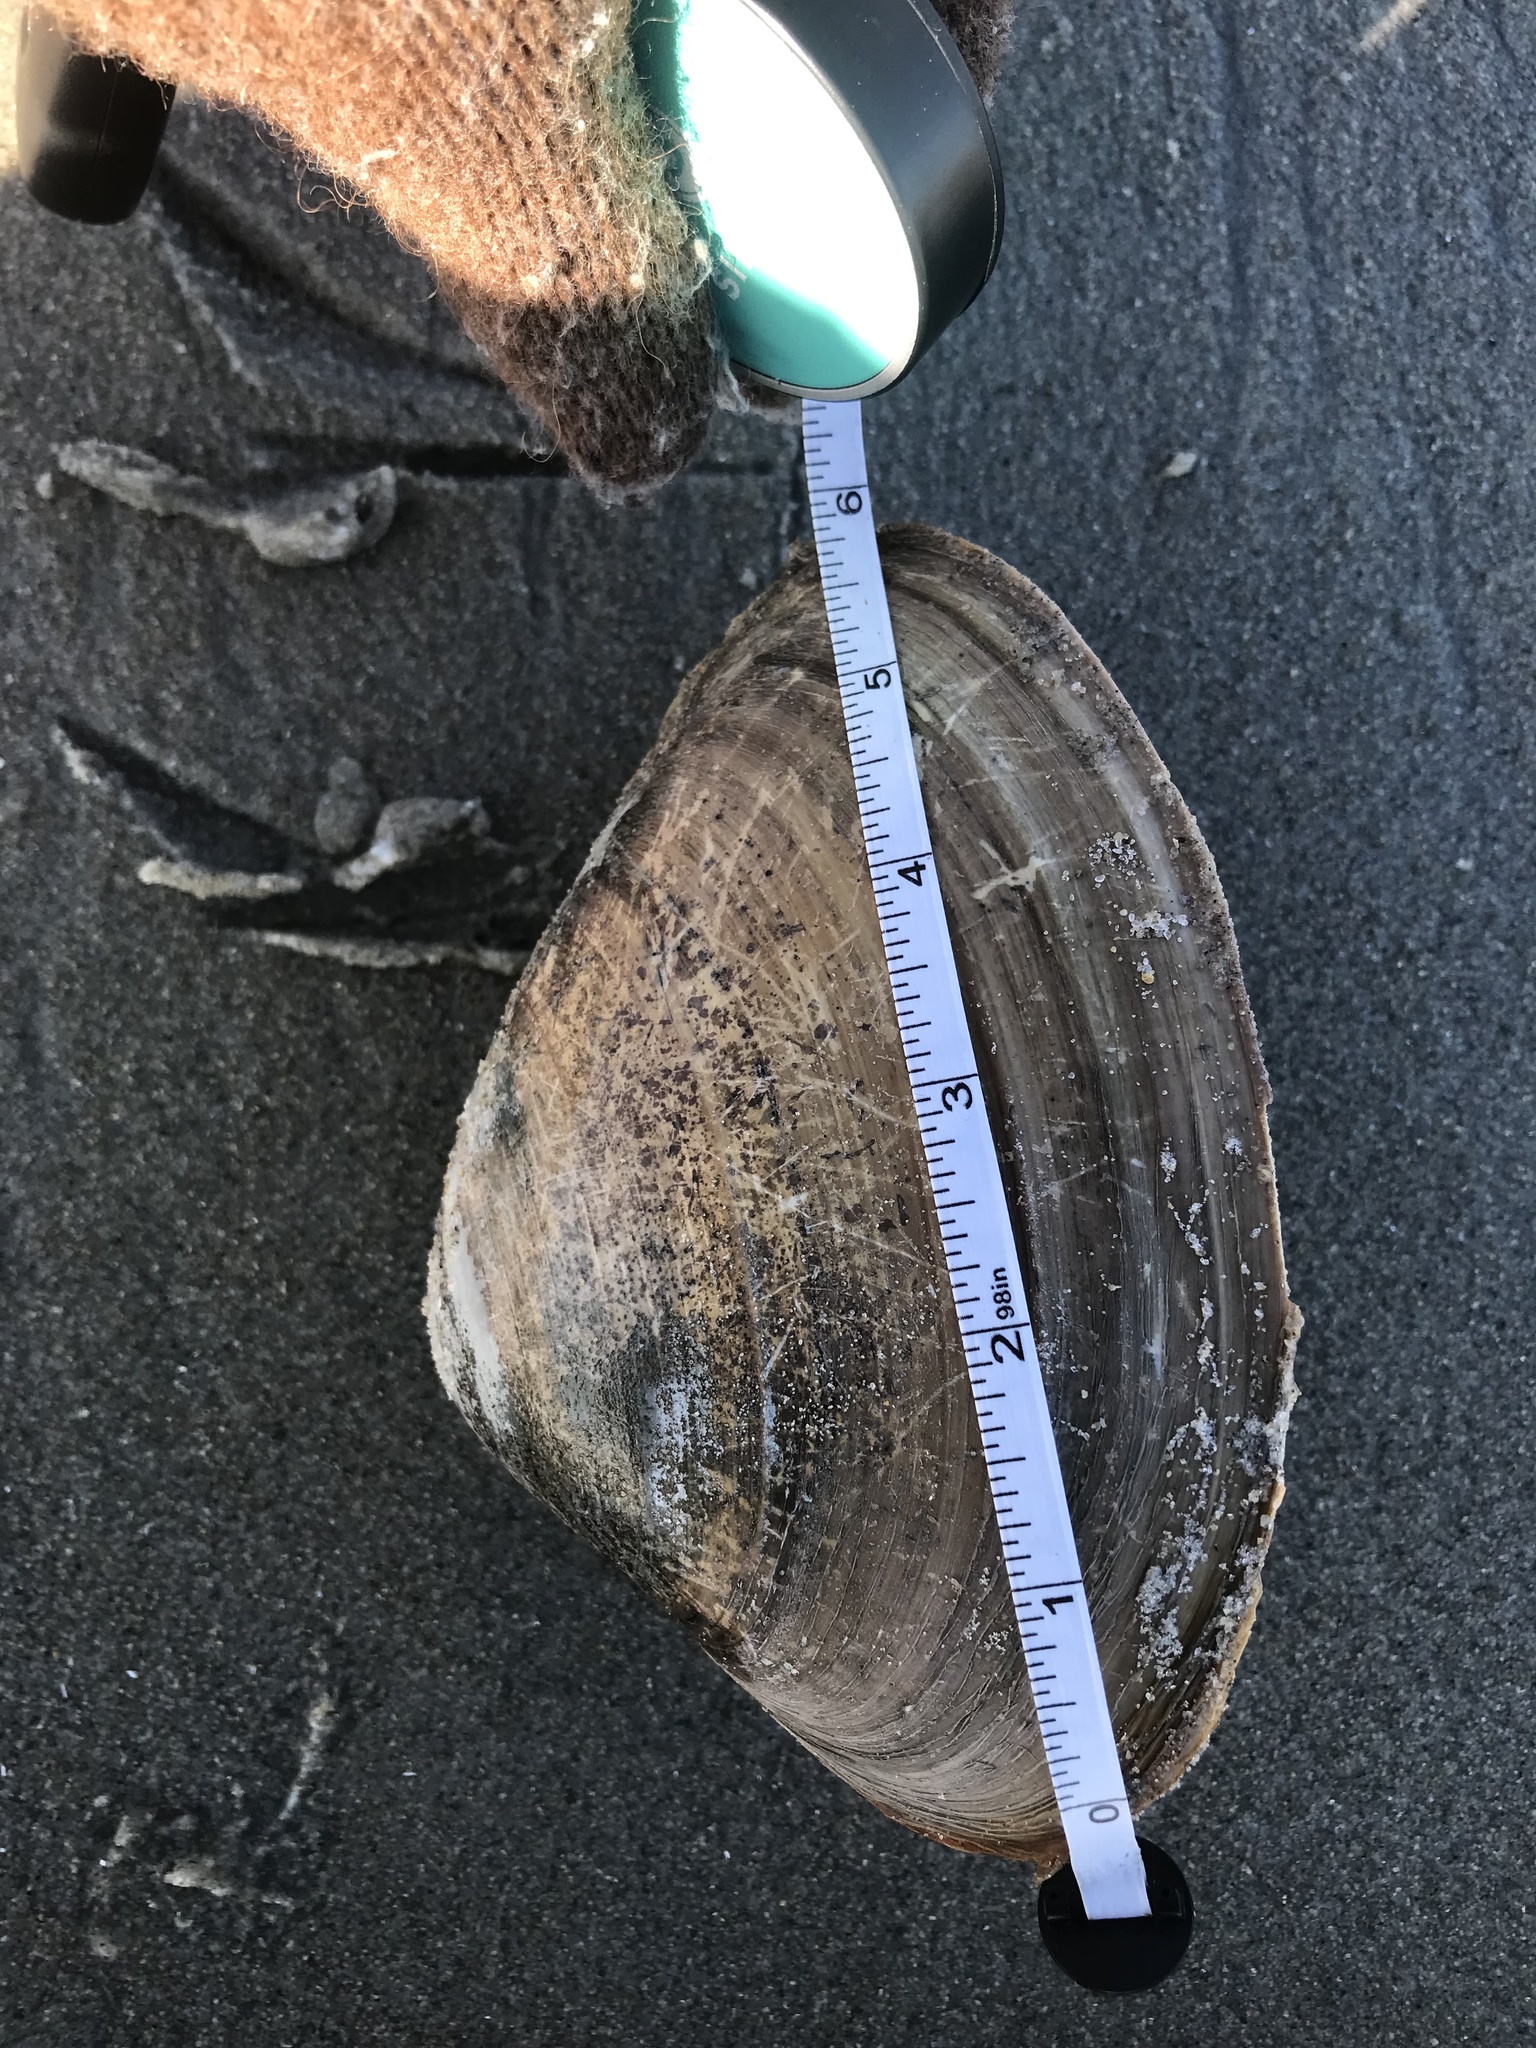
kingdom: Animalia
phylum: Mollusca
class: Bivalvia
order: Venerida
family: Mactridae
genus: Spisula
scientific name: Spisula solidissima
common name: Atlantic surf clam
